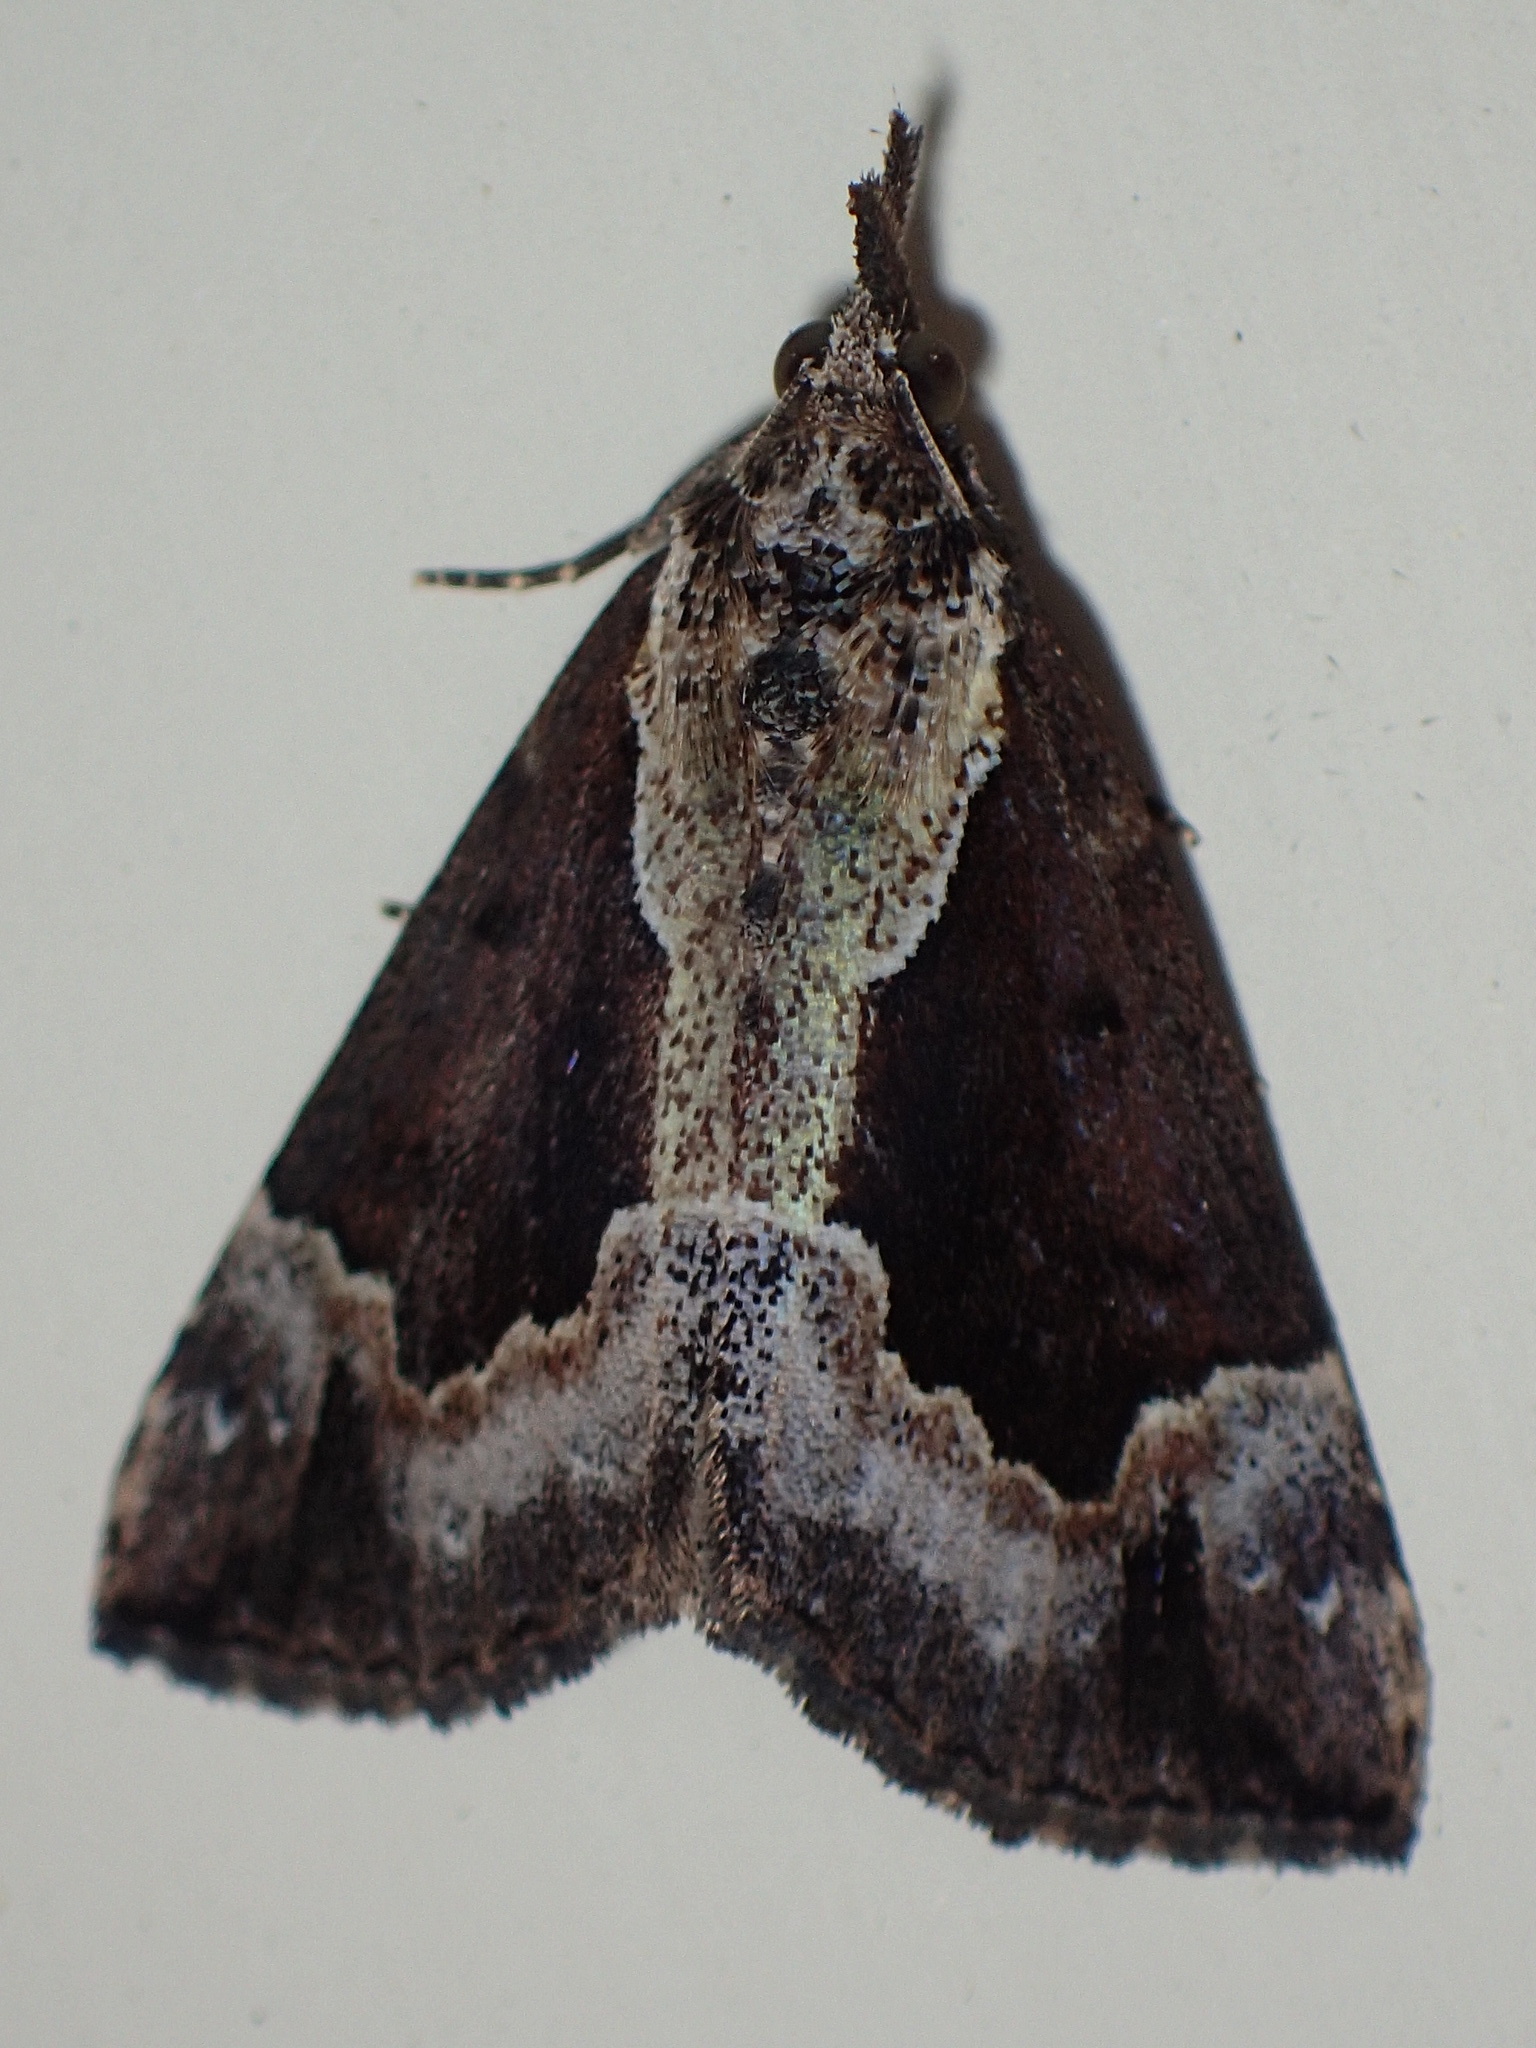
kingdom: Animalia
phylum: Arthropoda
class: Insecta
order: Lepidoptera
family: Erebidae
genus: Hypena
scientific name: Hypena baltimoralis
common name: Baltimore snout
